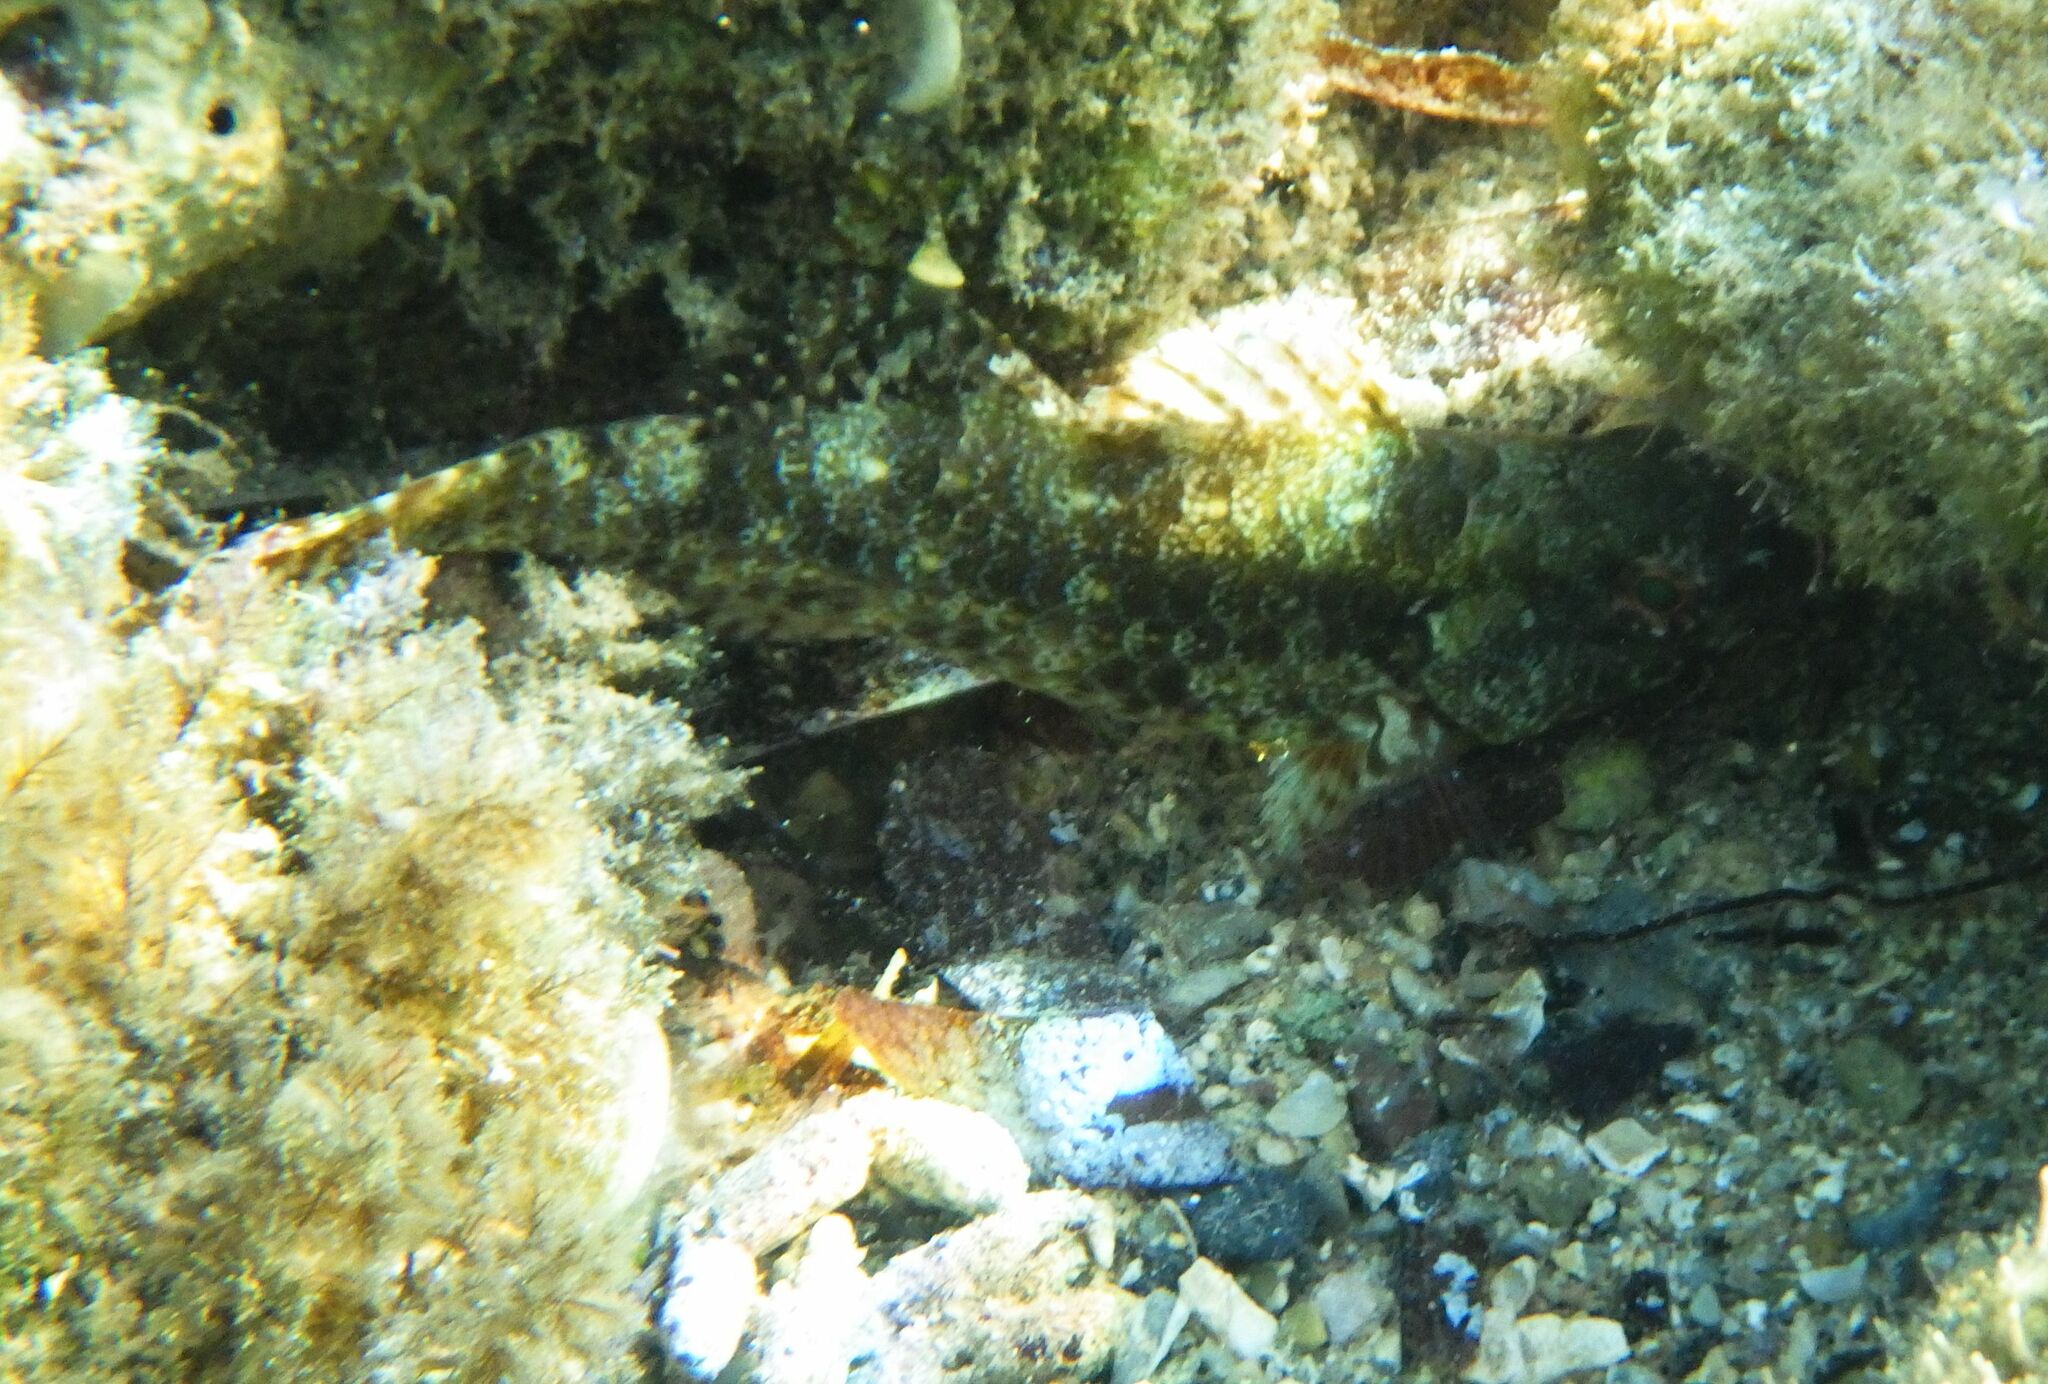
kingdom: Animalia
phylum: Chordata
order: Perciformes
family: Scaridae
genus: Sparisoma
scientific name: Sparisoma cretense
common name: Parrotfish
